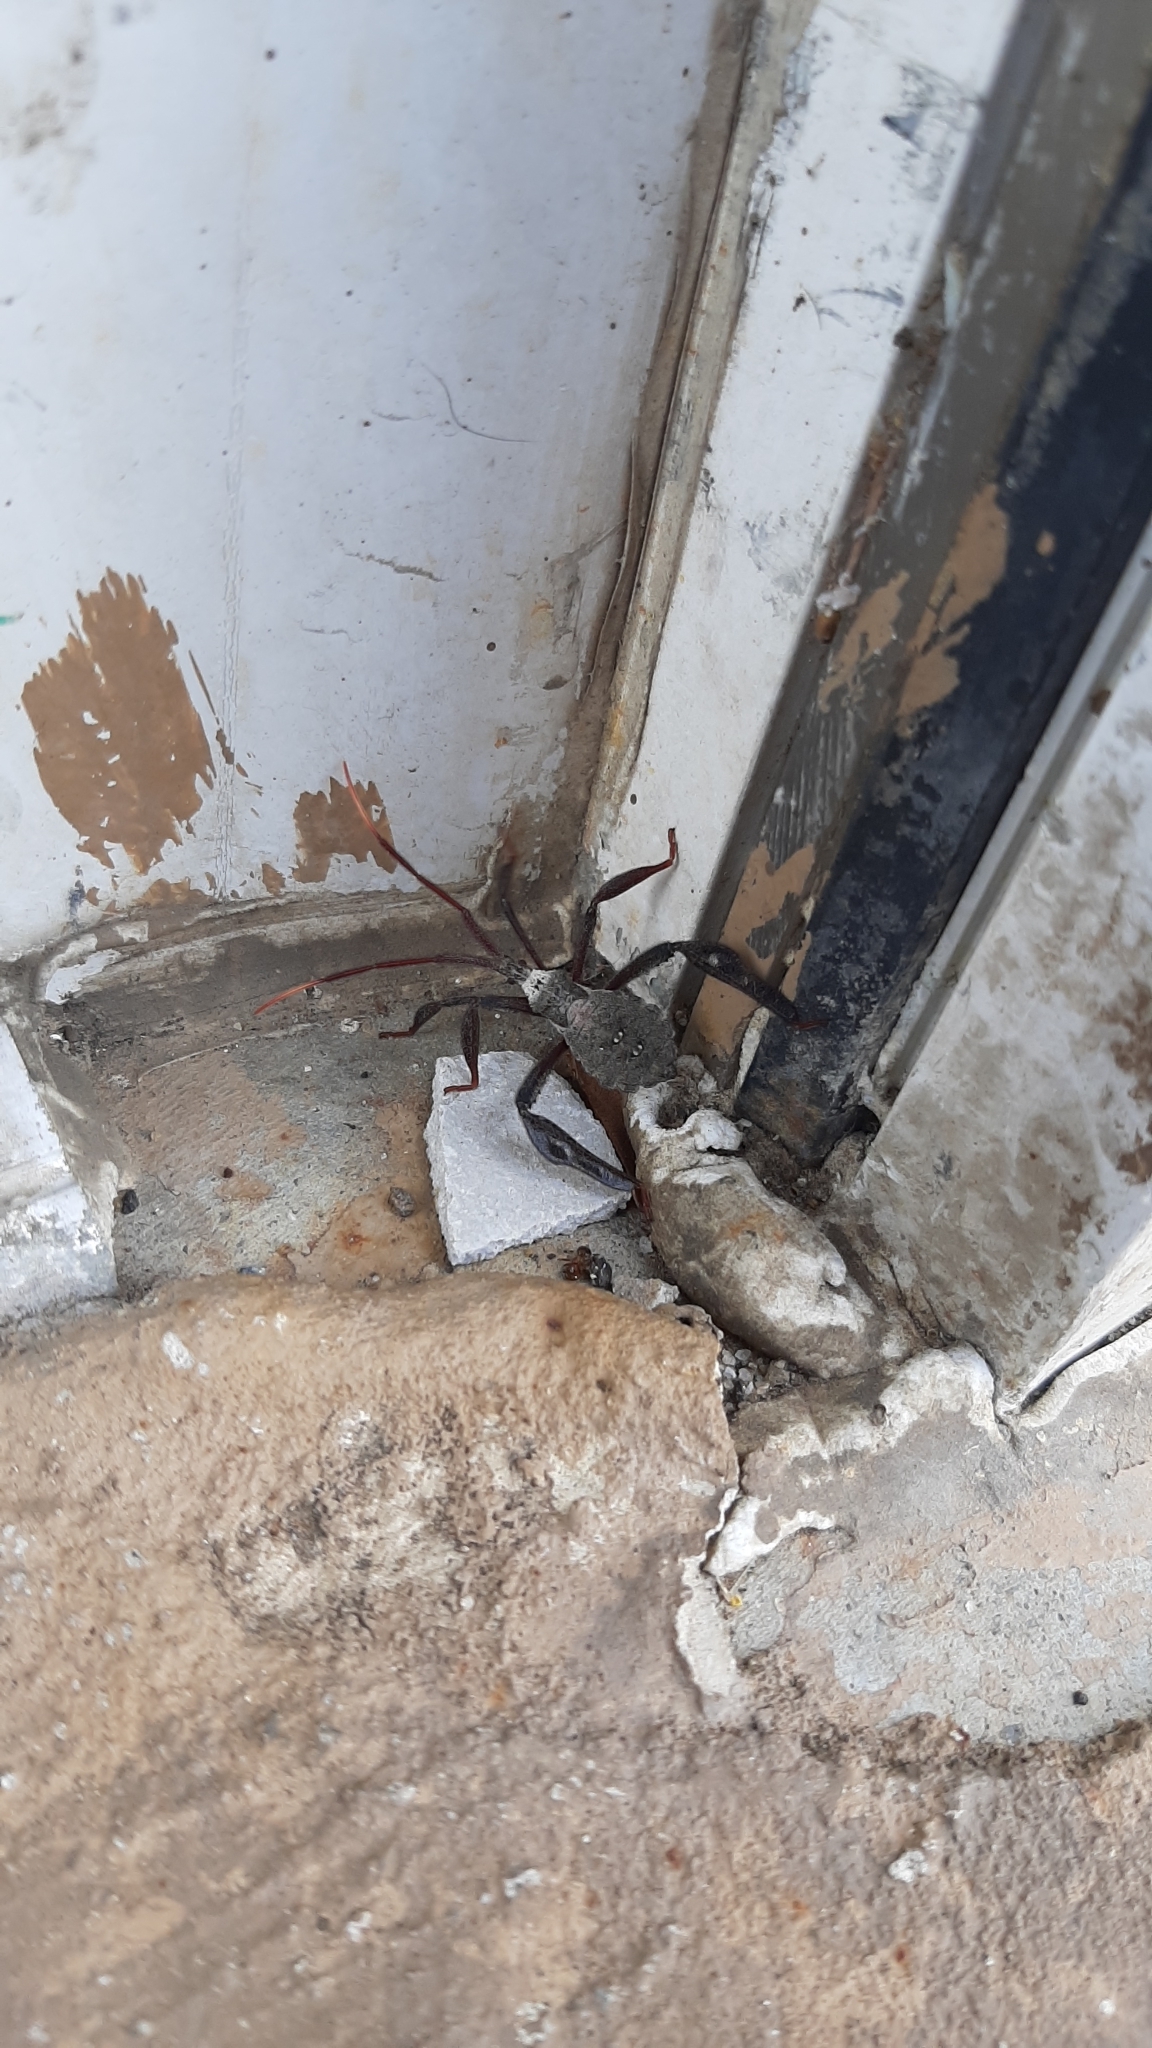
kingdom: Animalia
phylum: Arthropoda
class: Insecta
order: Hemiptera
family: Coreidae
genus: Acanthocephala
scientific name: Acanthocephala declivis
